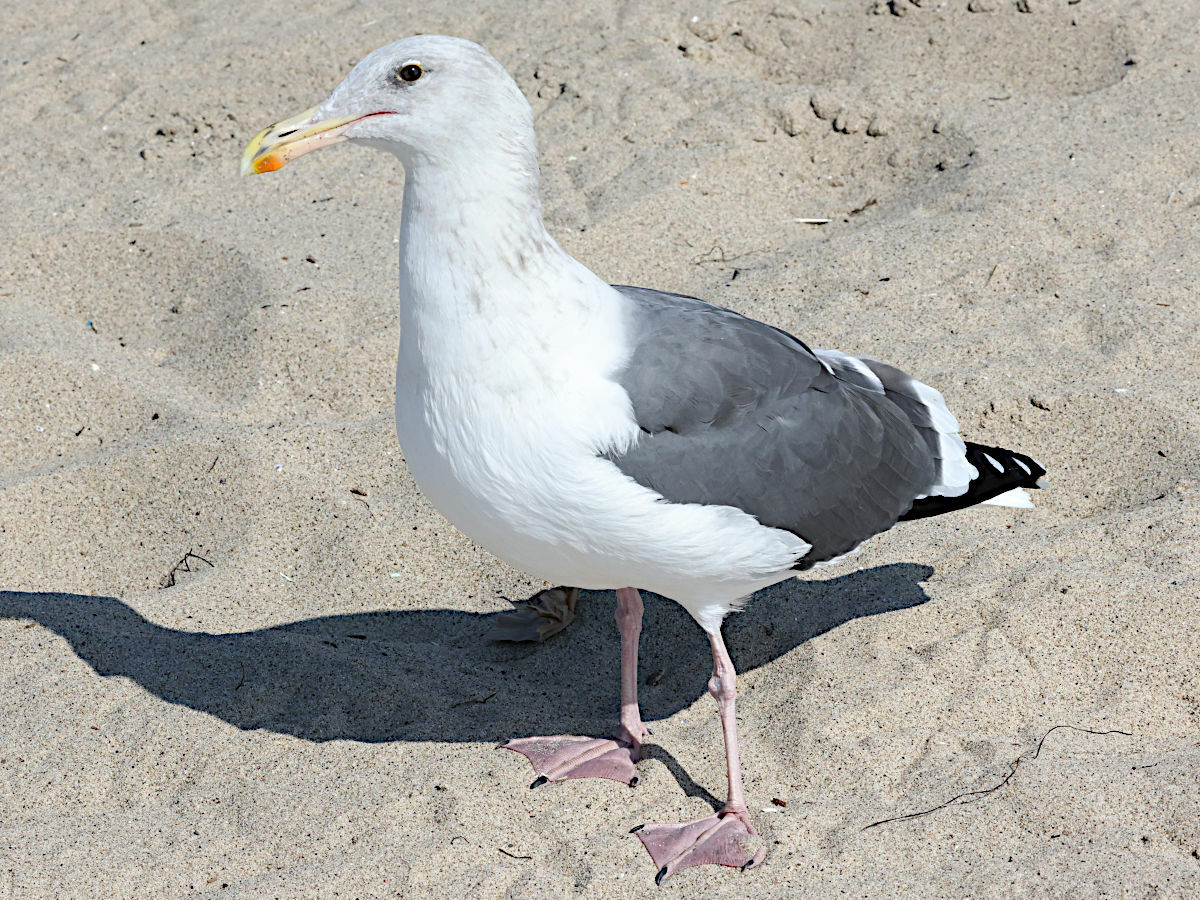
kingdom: Animalia
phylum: Chordata
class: Aves
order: Charadriiformes
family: Laridae
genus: Larus
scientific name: Larus occidentalis
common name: Western gull
